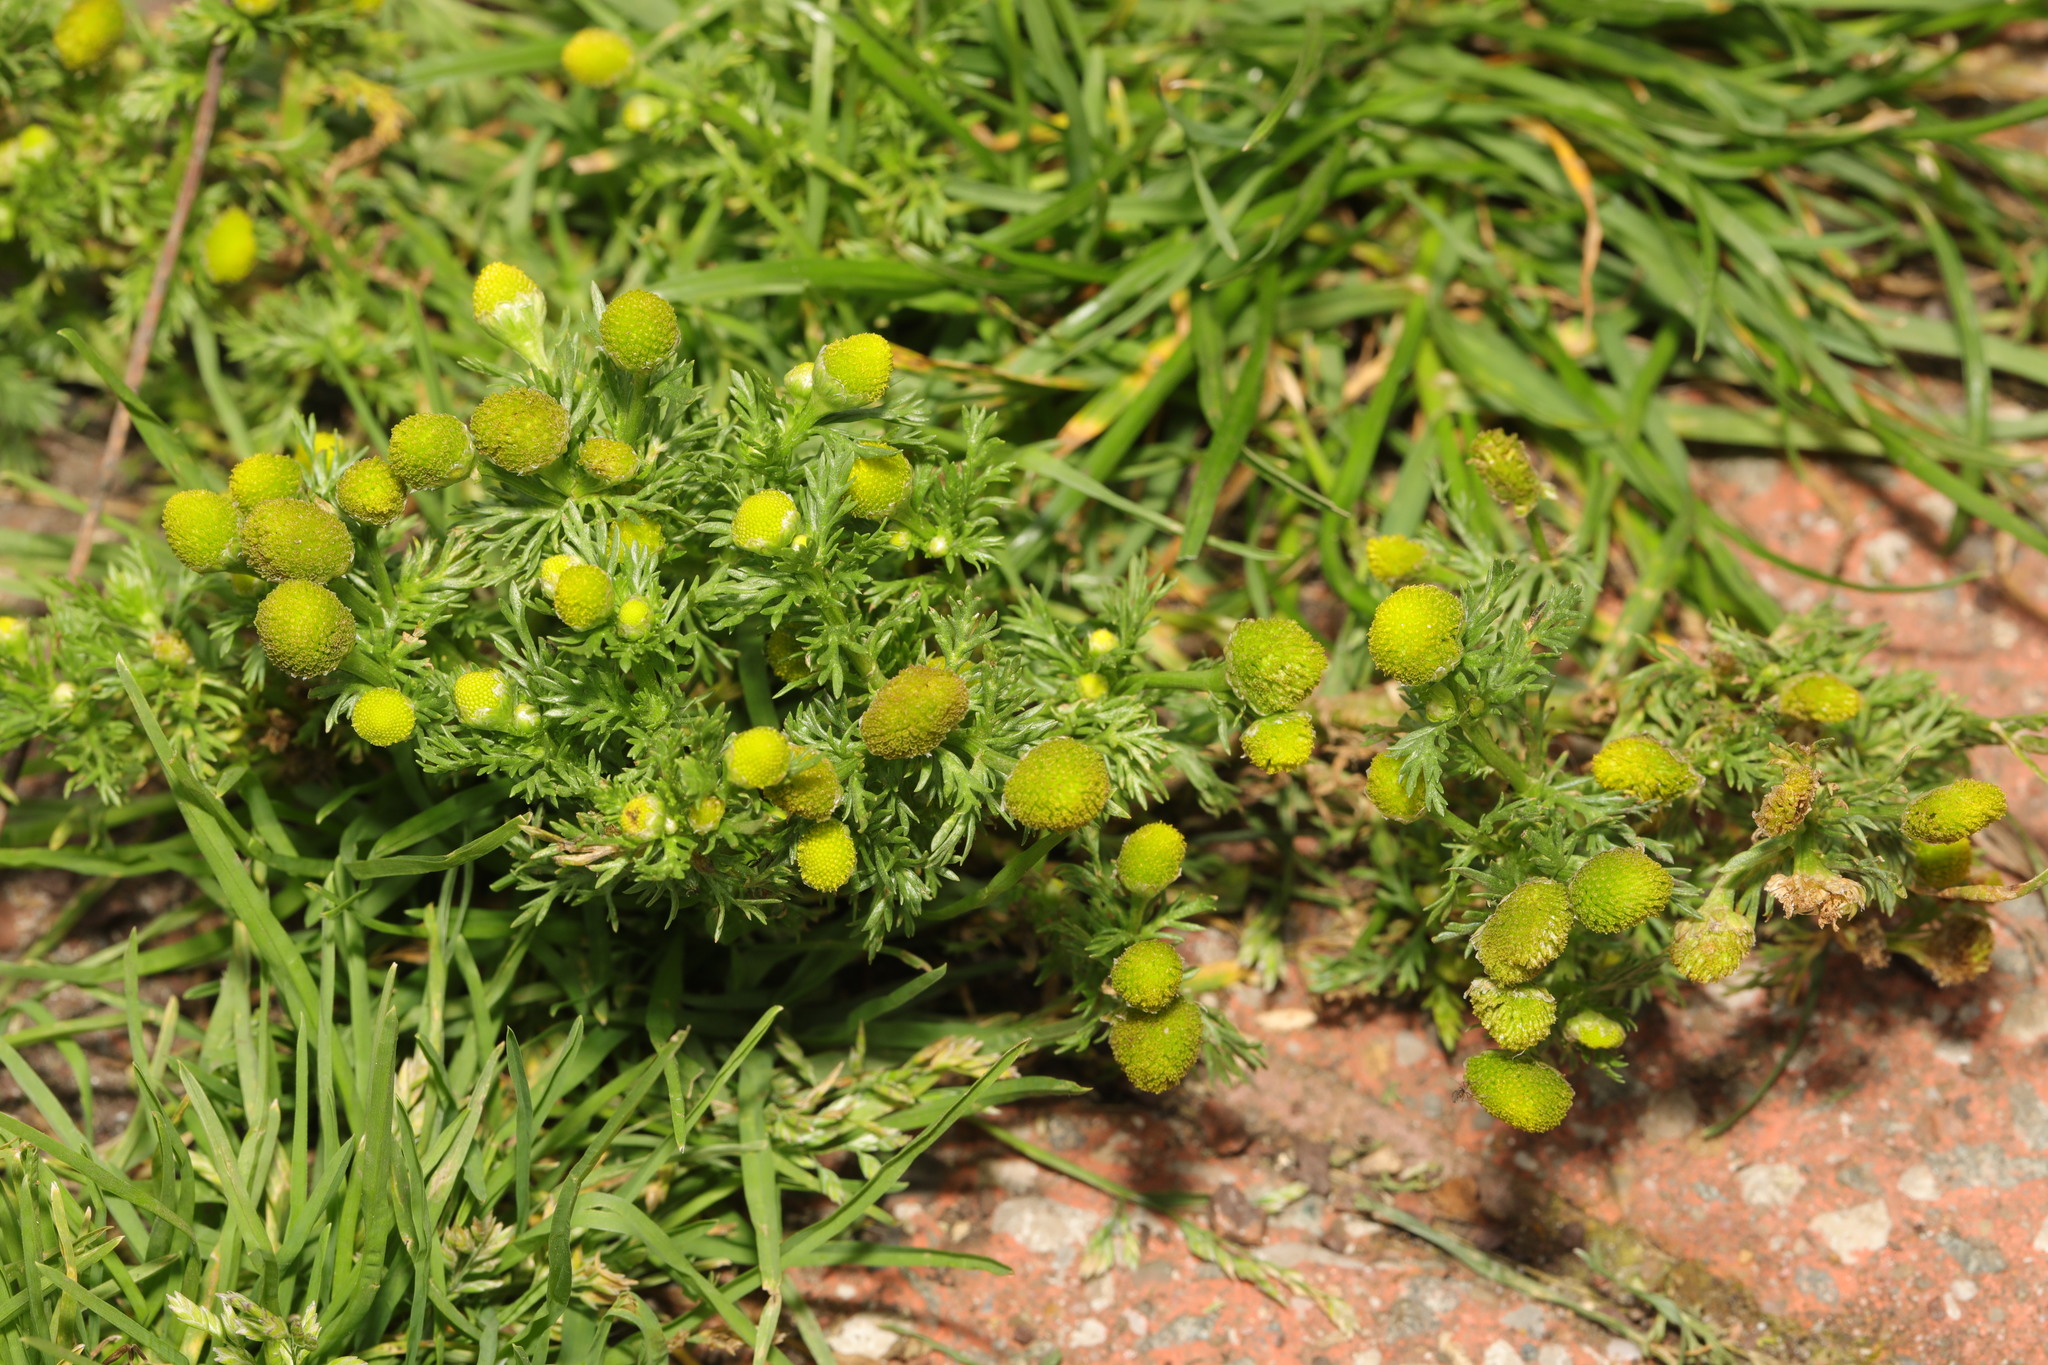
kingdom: Plantae
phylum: Tracheophyta
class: Magnoliopsida
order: Asterales
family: Asteraceae
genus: Matricaria
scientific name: Matricaria discoidea
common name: Disc mayweed
